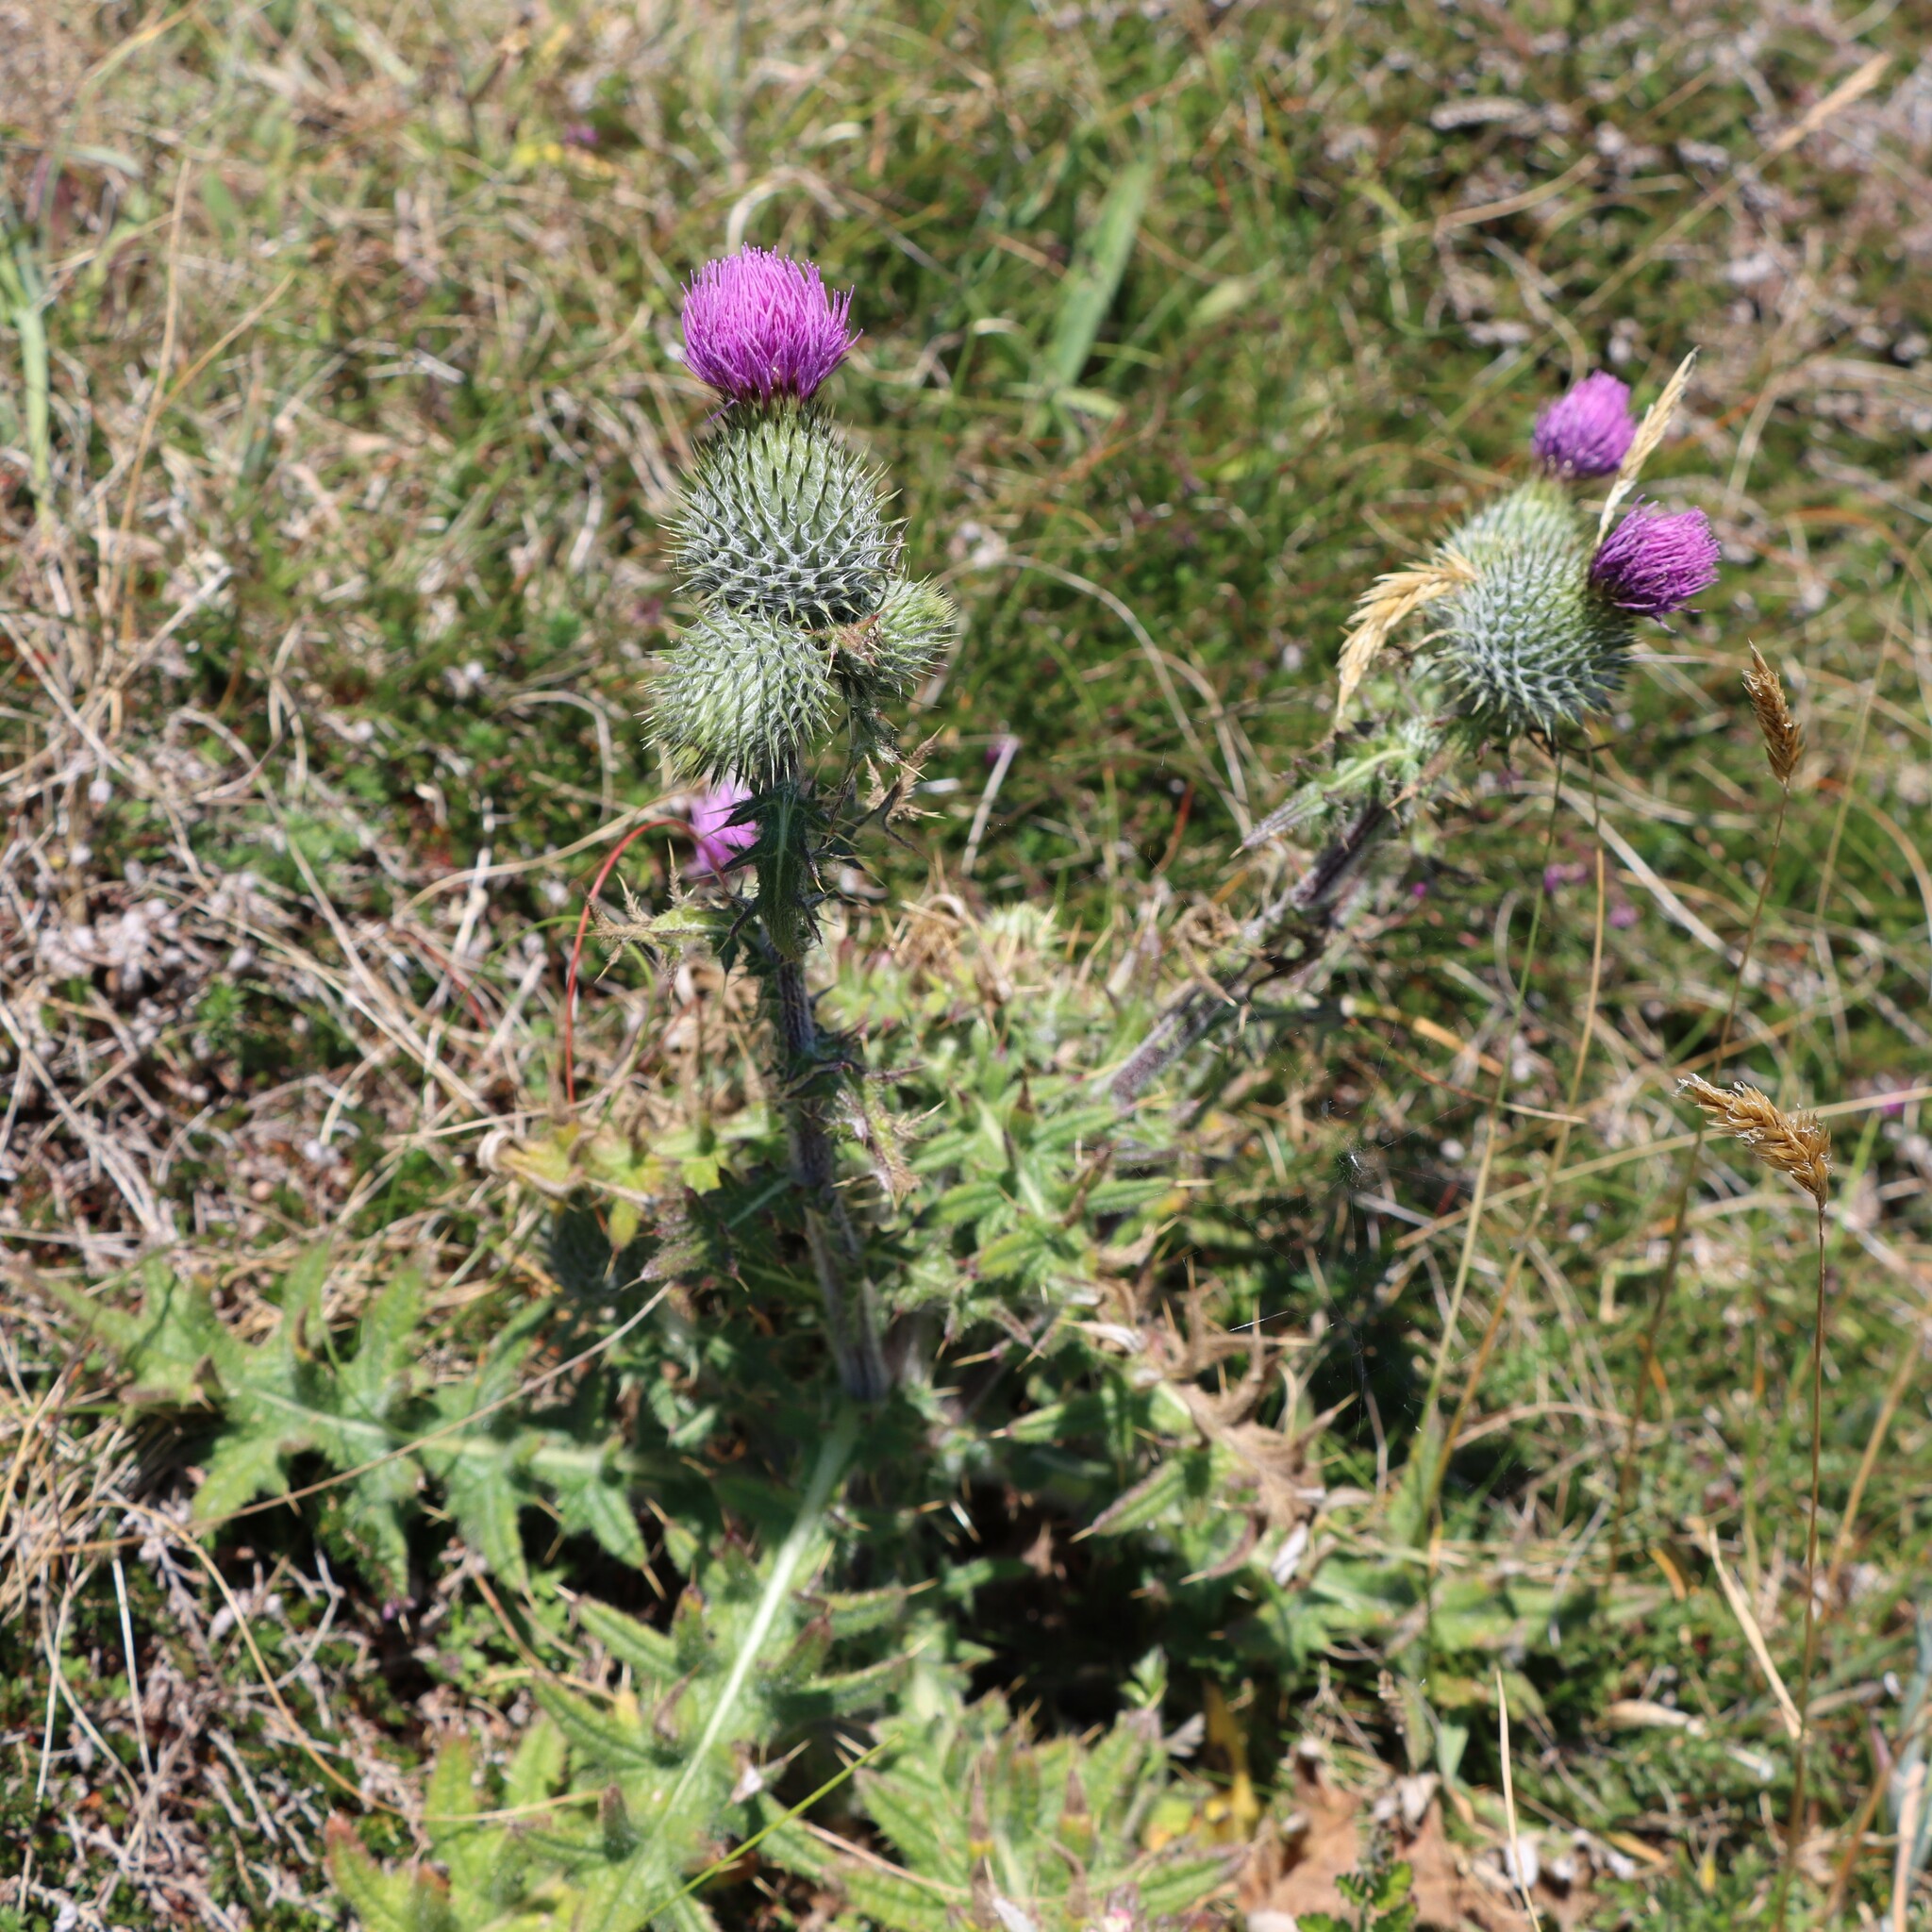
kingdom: Plantae
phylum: Tracheophyta
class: Magnoliopsida
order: Asterales
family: Asteraceae
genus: Cirsium
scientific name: Cirsium vulgare
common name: Bull thistle
